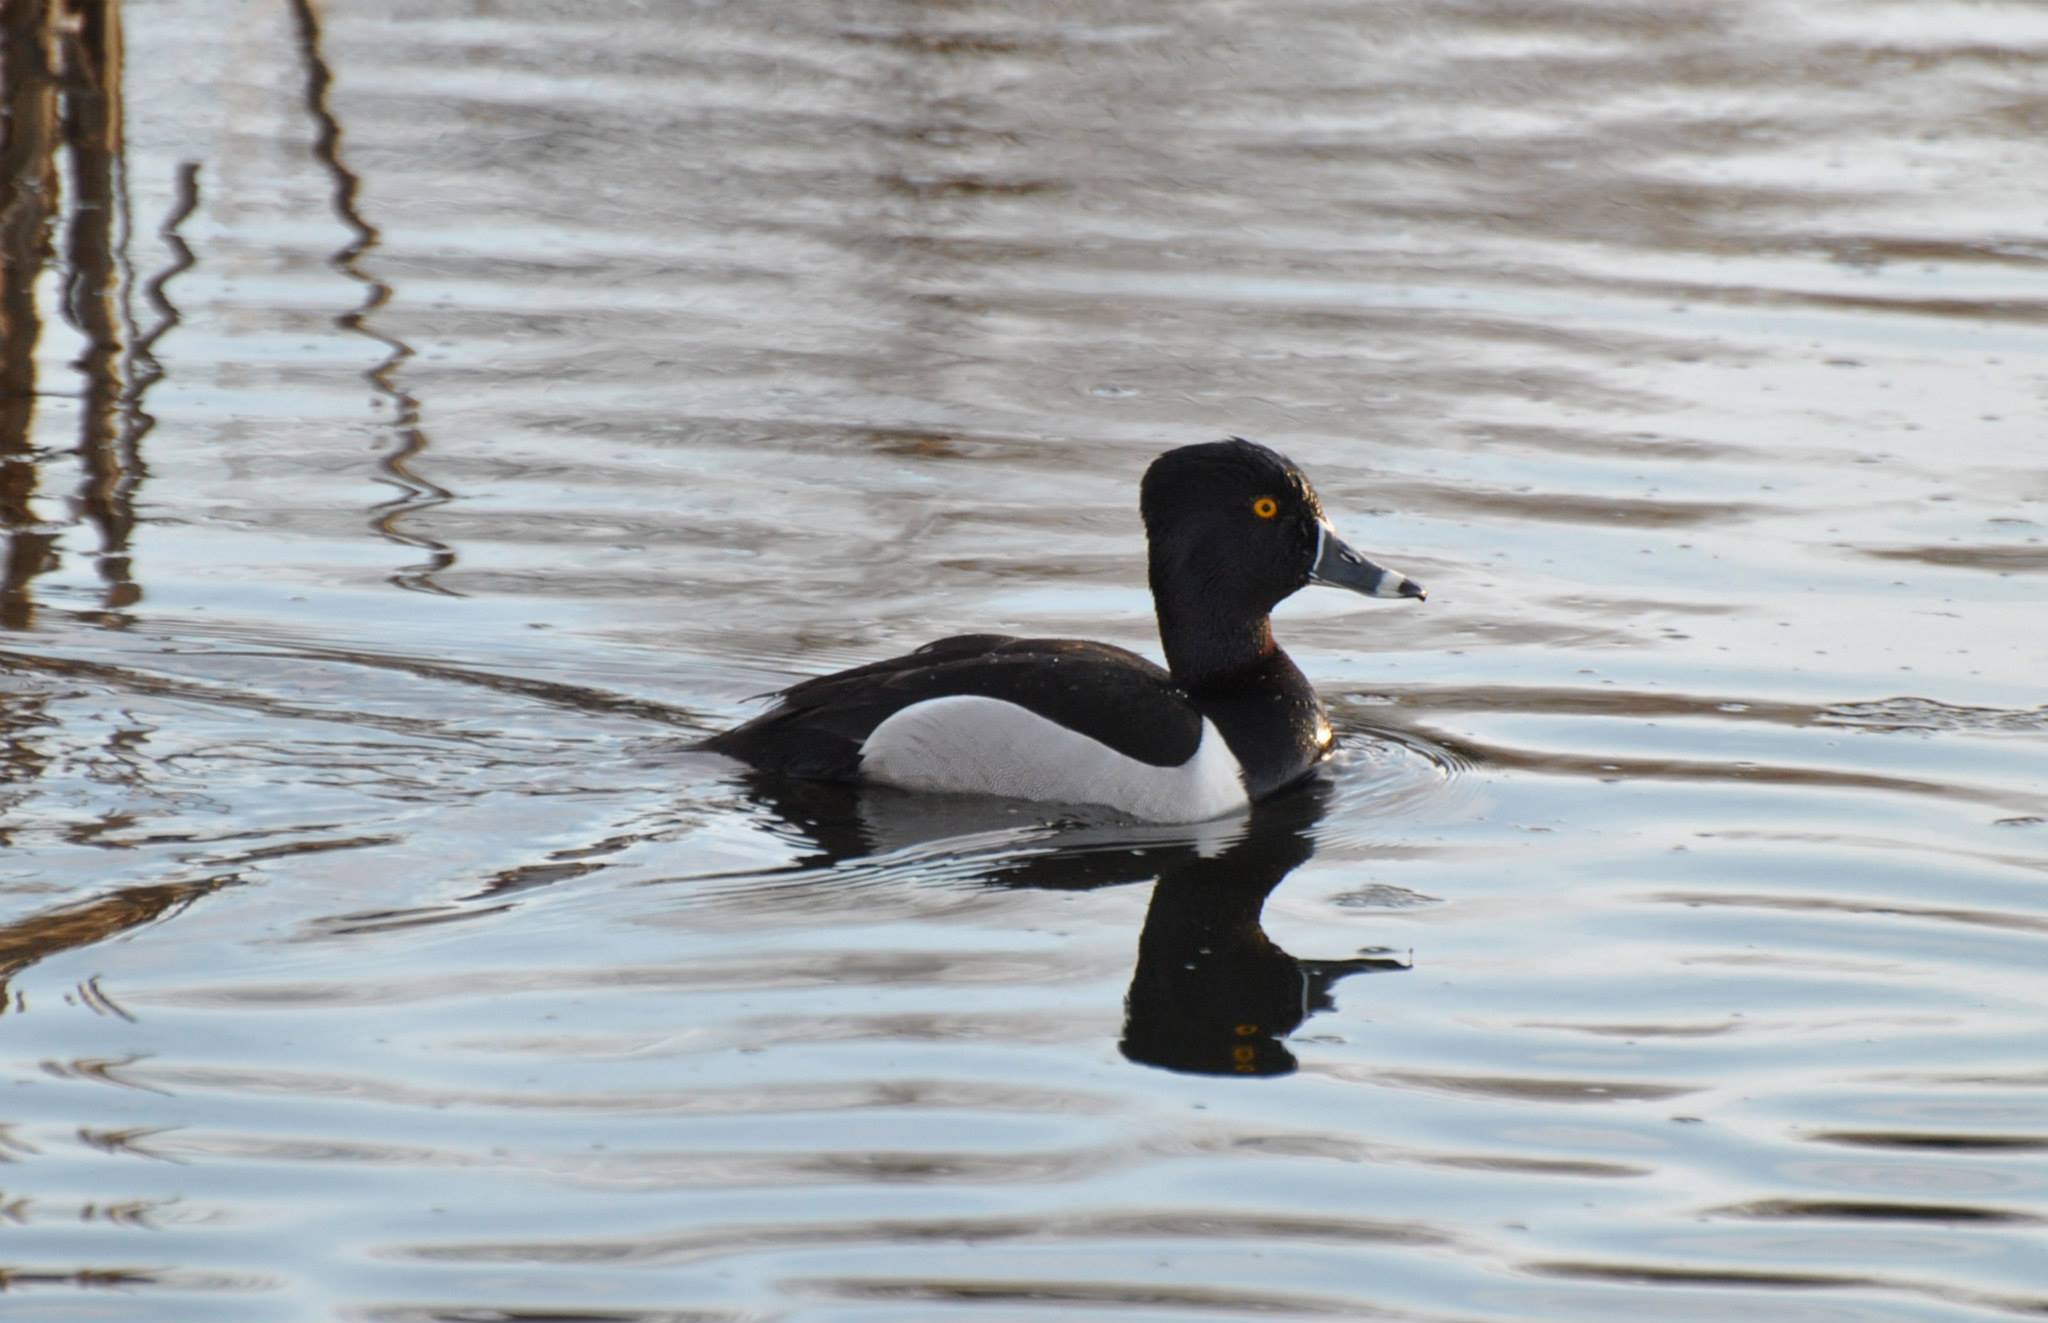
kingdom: Animalia
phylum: Chordata
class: Aves
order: Anseriformes
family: Anatidae
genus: Aythya
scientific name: Aythya collaris
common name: Ring-necked duck
